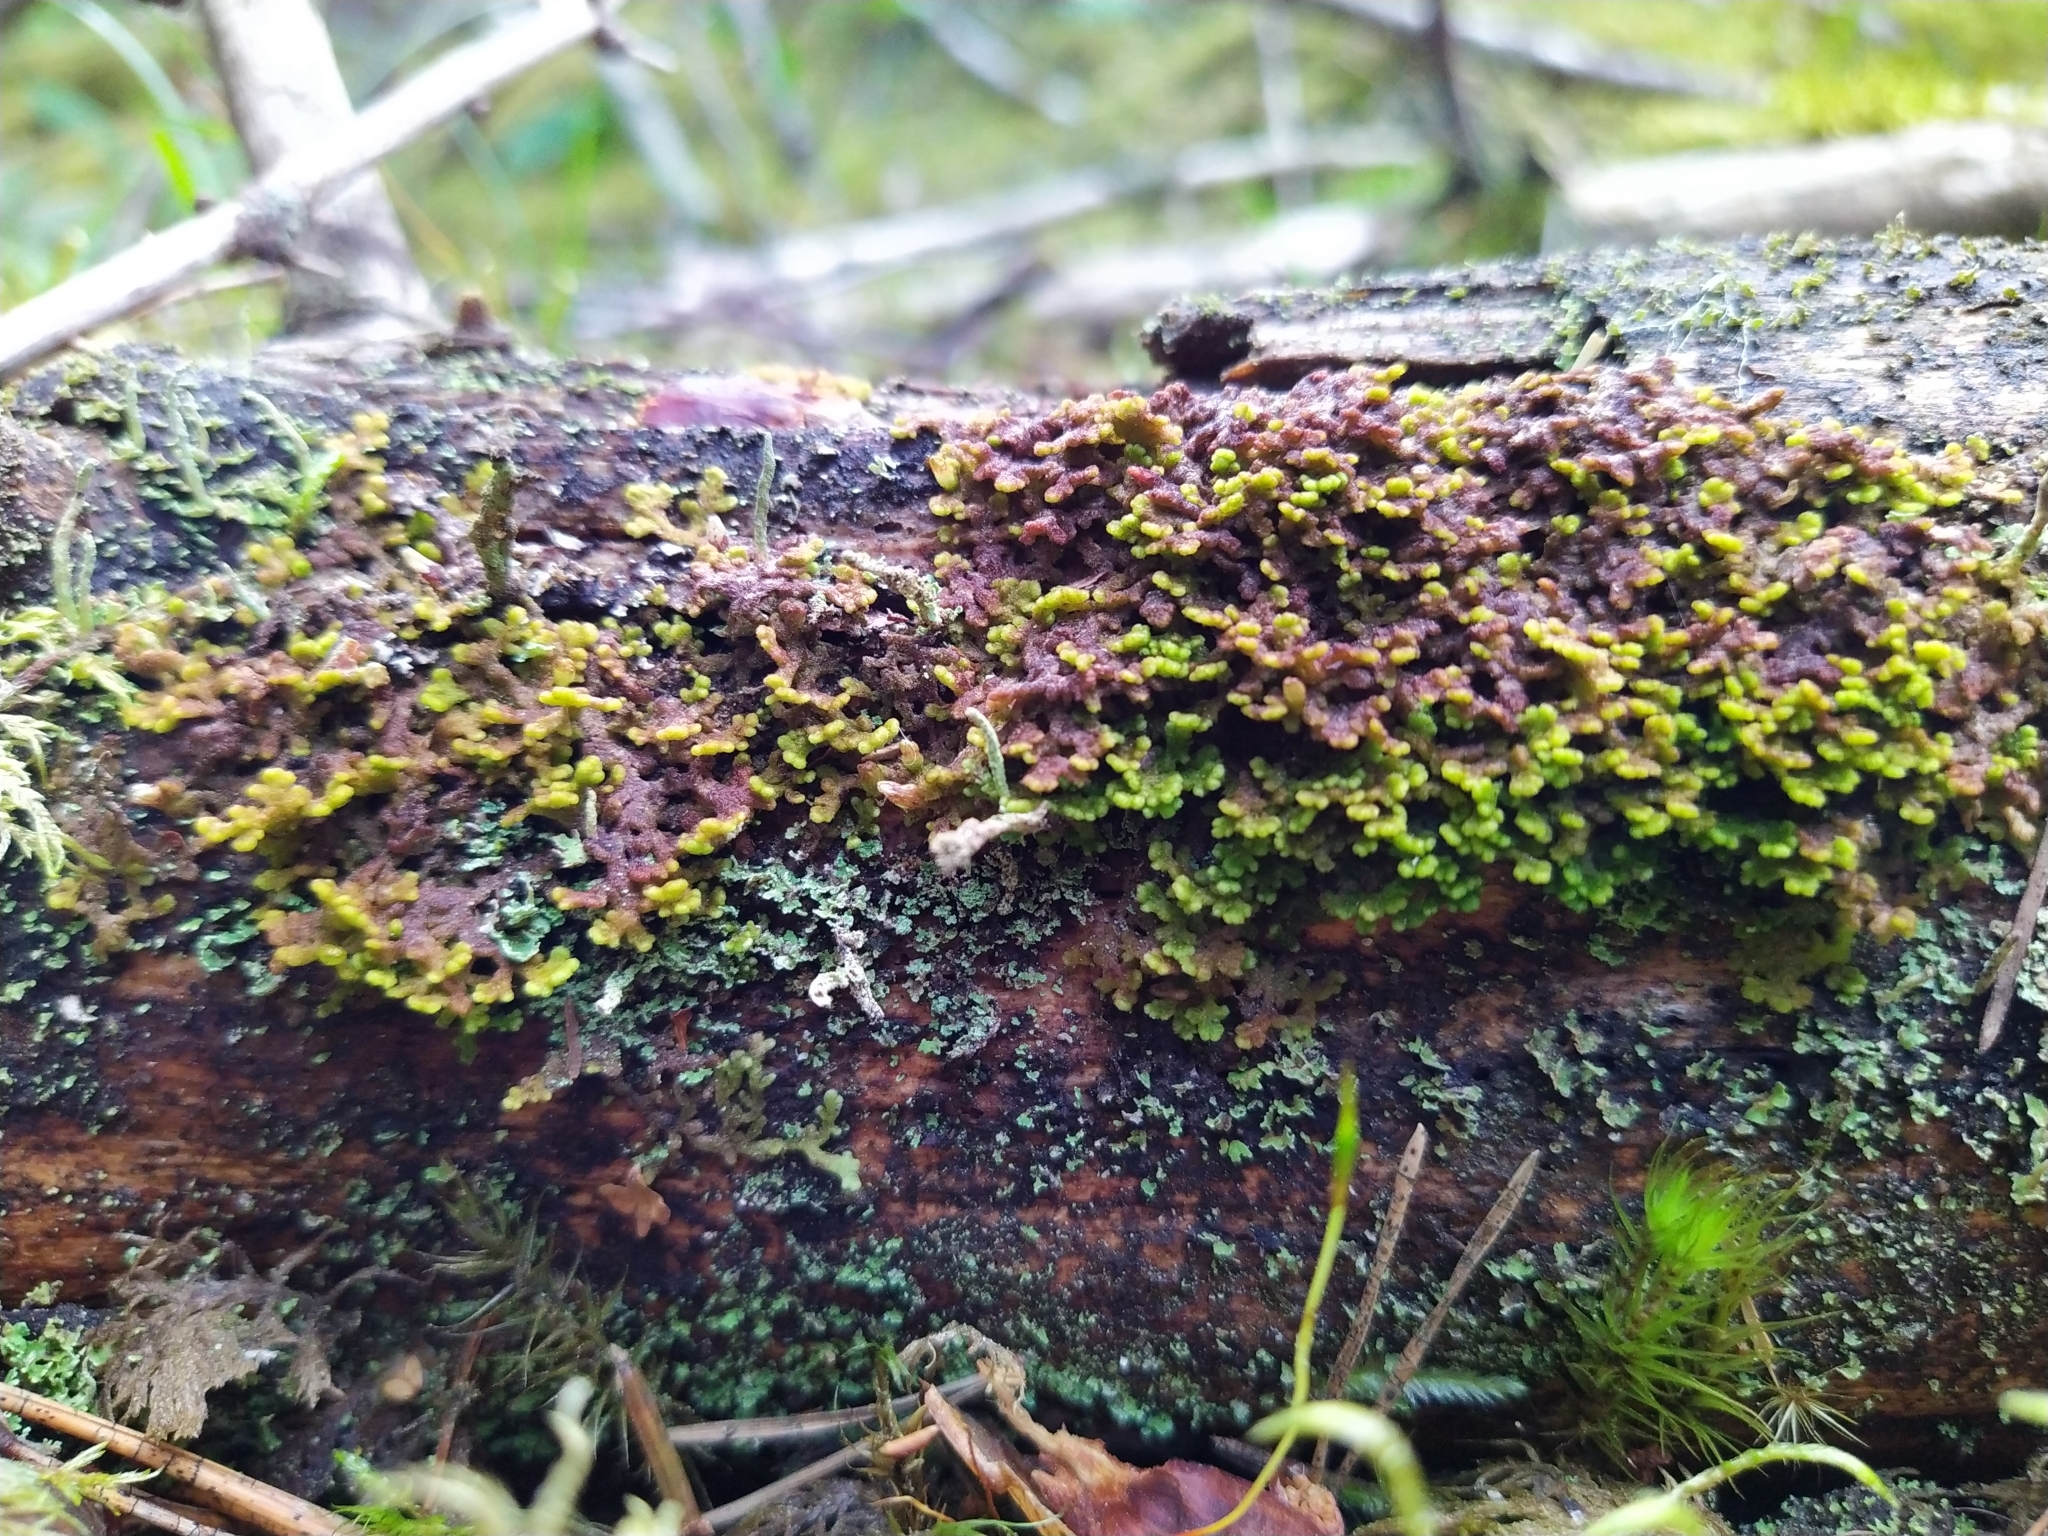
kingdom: Plantae
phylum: Marchantiophyta
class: Jungermanniopsida
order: Ptilidiales
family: Ptilidiaceae
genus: Ptilidium
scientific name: Ptilidium pulcherrimum
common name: Tree fringewort
